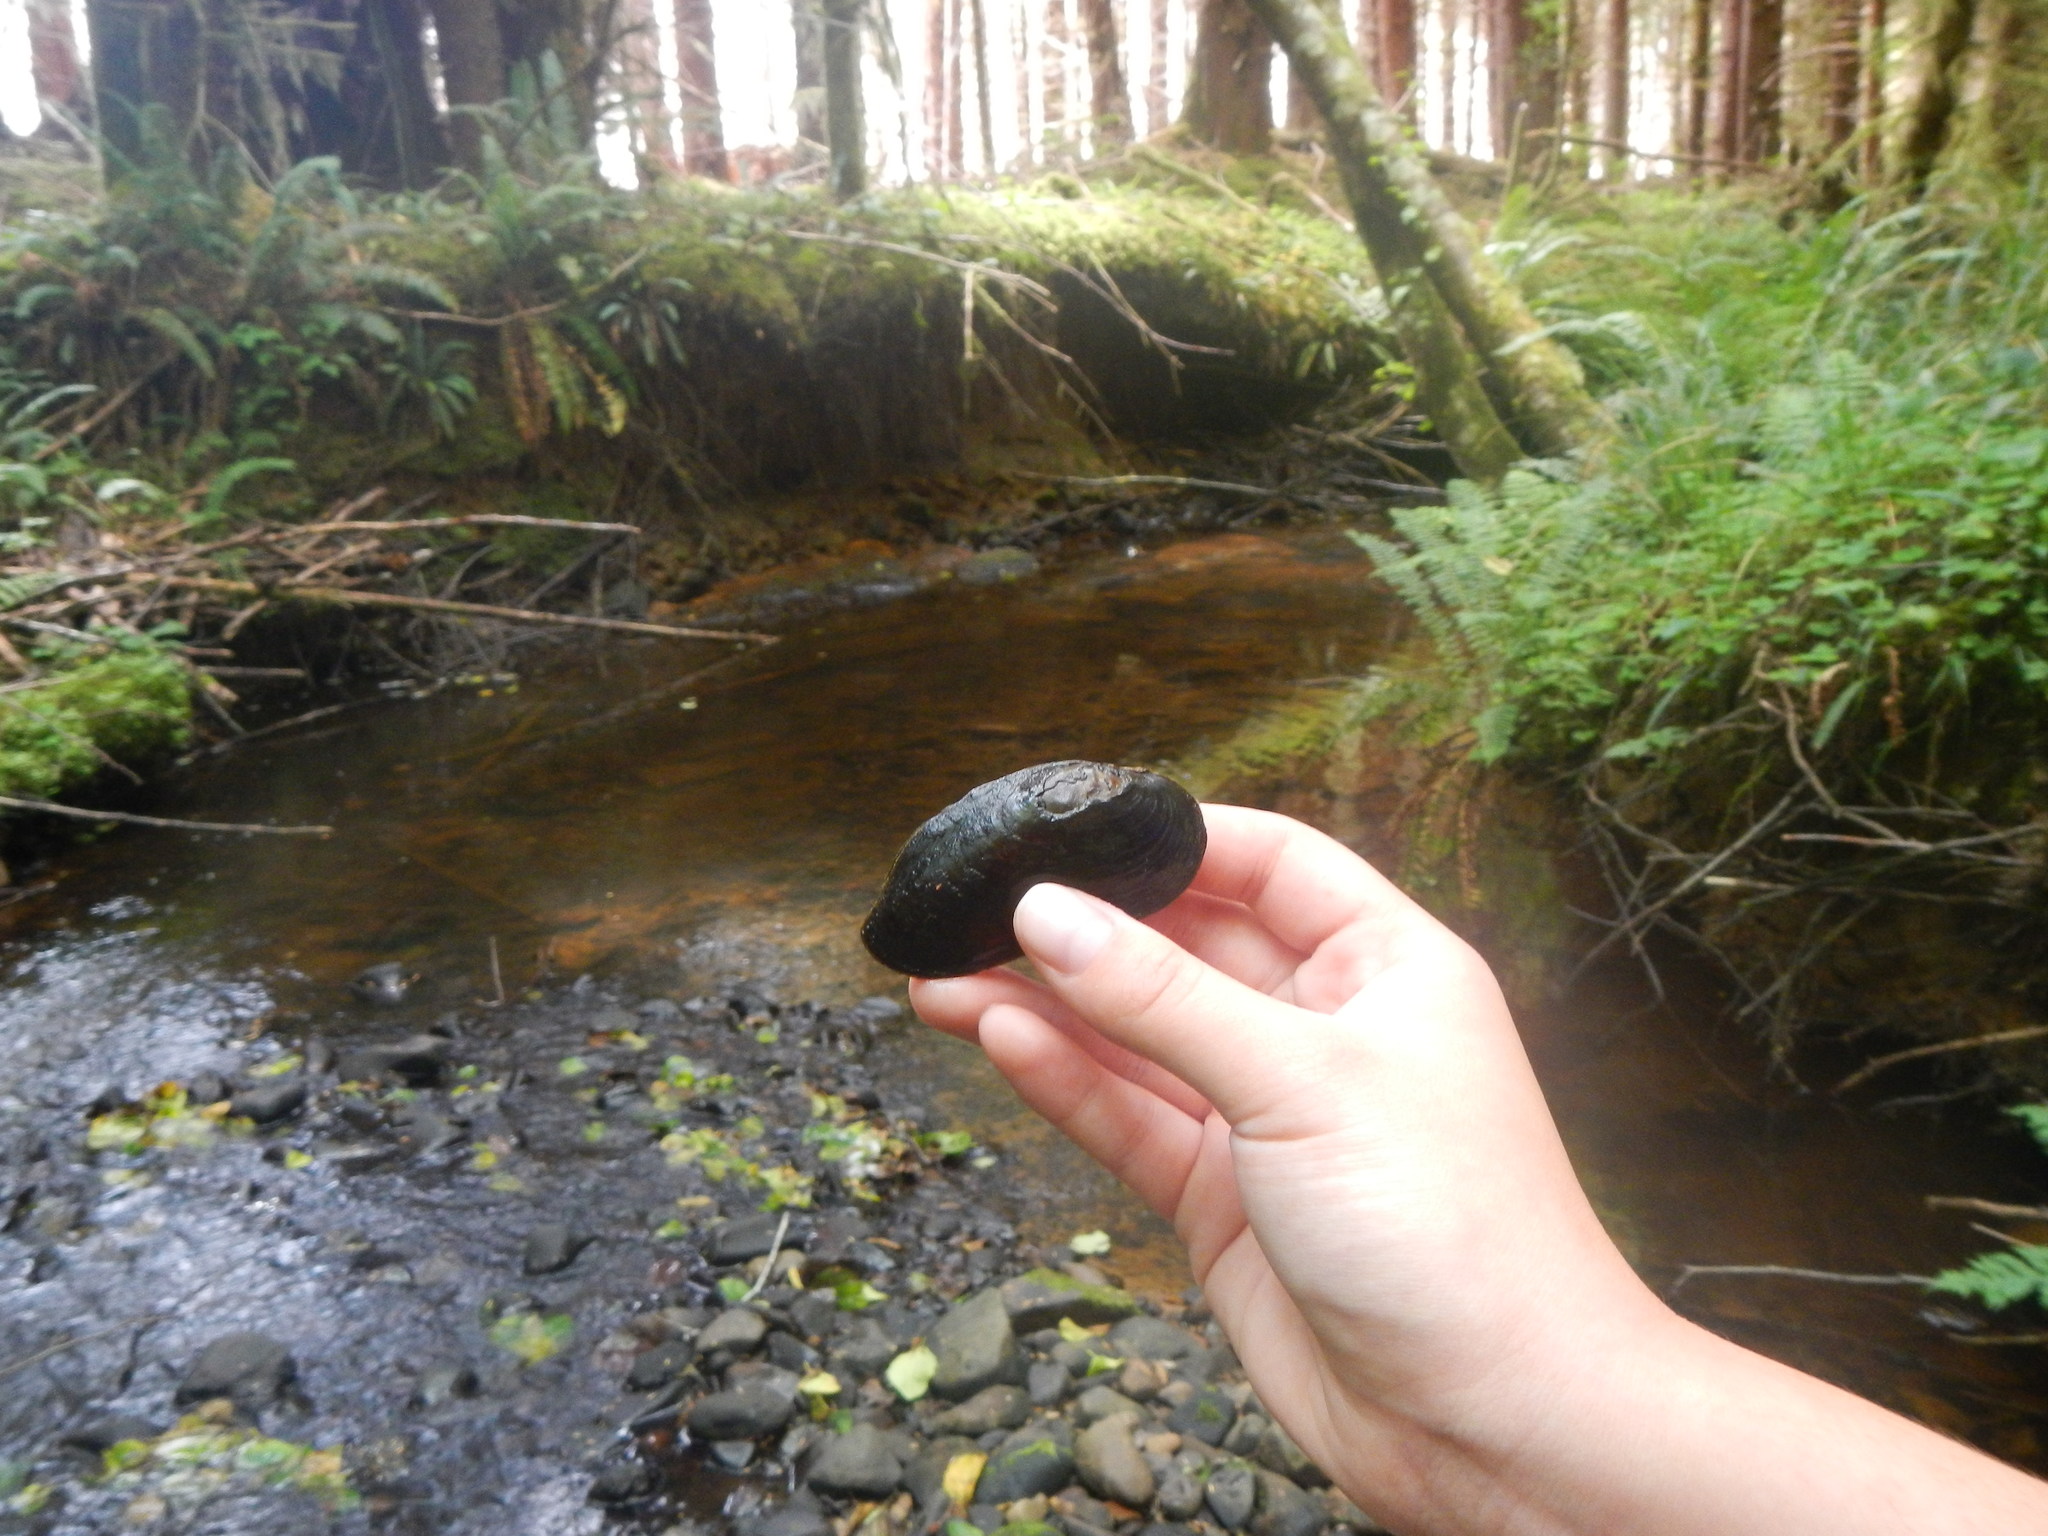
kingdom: Animalia
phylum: Mollusca
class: Bivalvia
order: Unionida
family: Margaritiferidae
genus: Margaritifera
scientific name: Margaritifera falcata
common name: Western pearlshell
